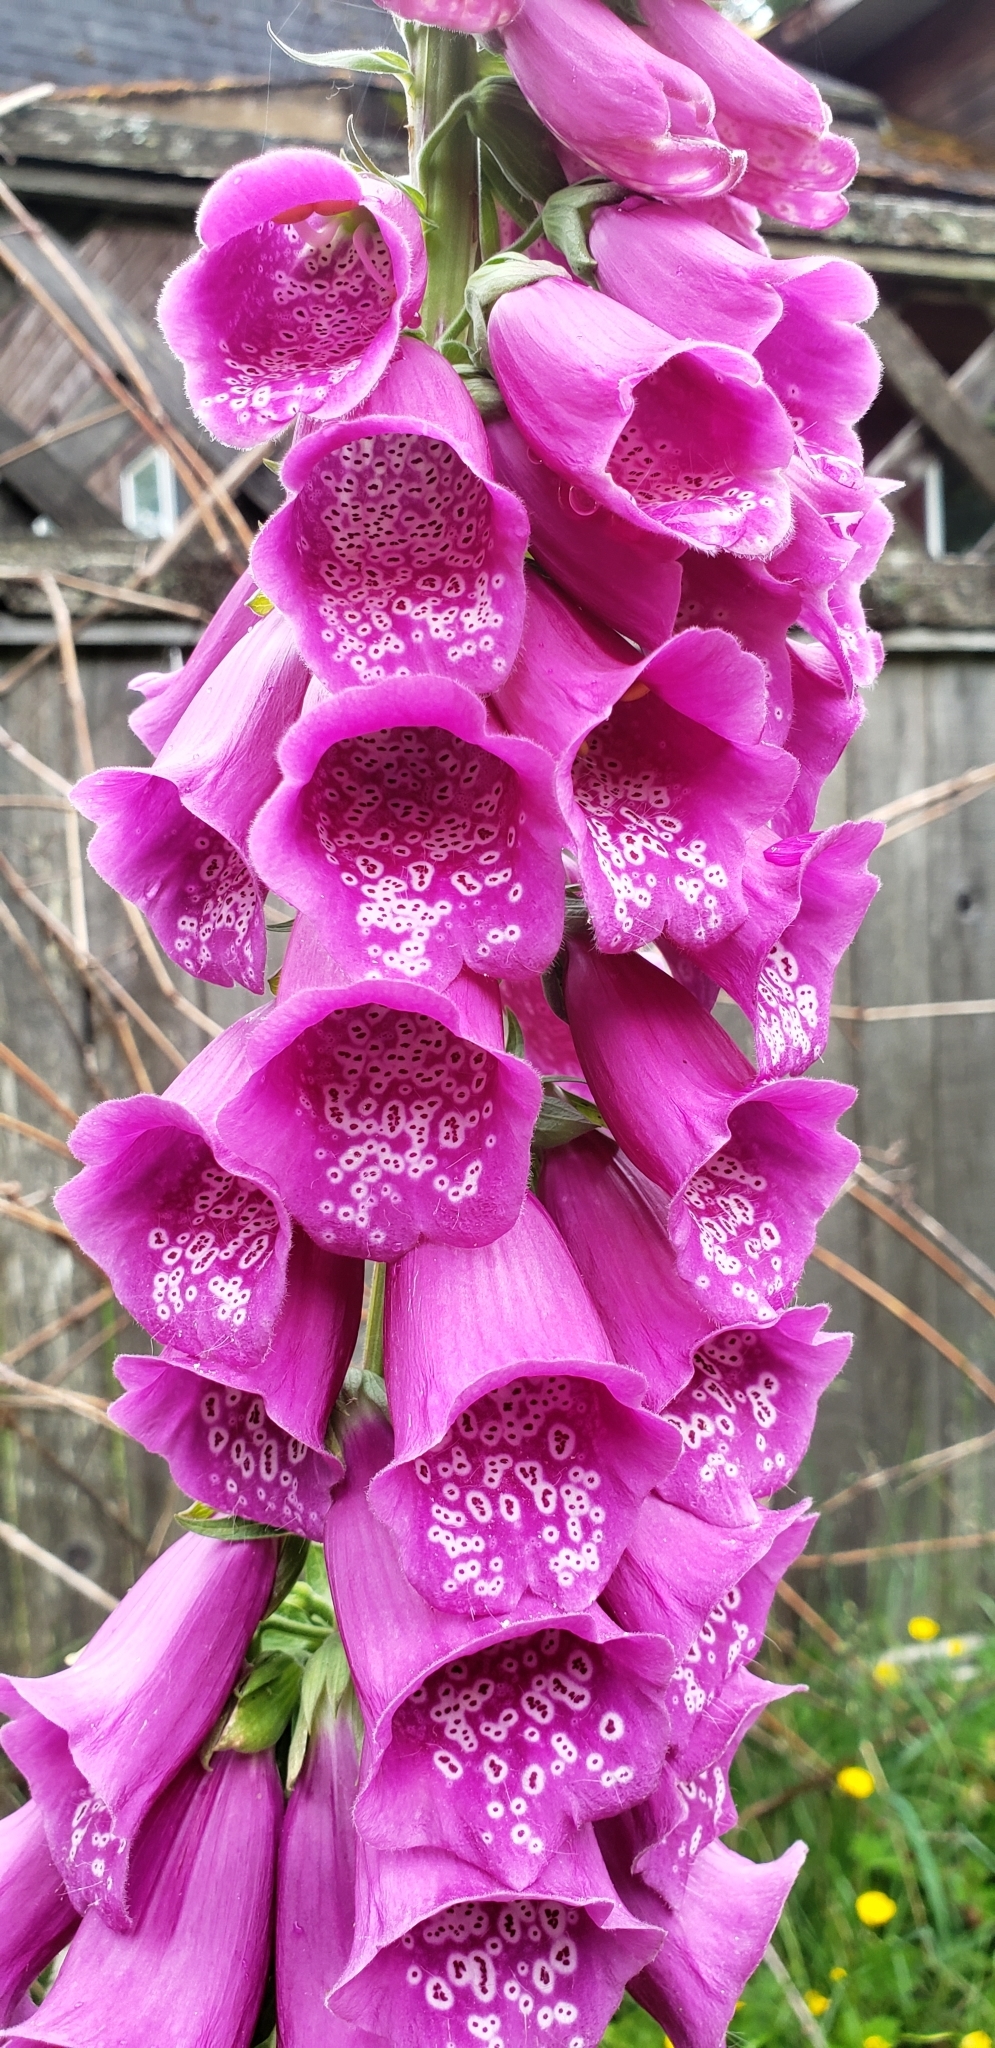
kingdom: Plantae
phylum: Tracheophyta
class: Magnoliopsida
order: Lamiales
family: Plantaginaceae
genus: Digitalis
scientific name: Digitalis purpurea
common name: Foxglove
